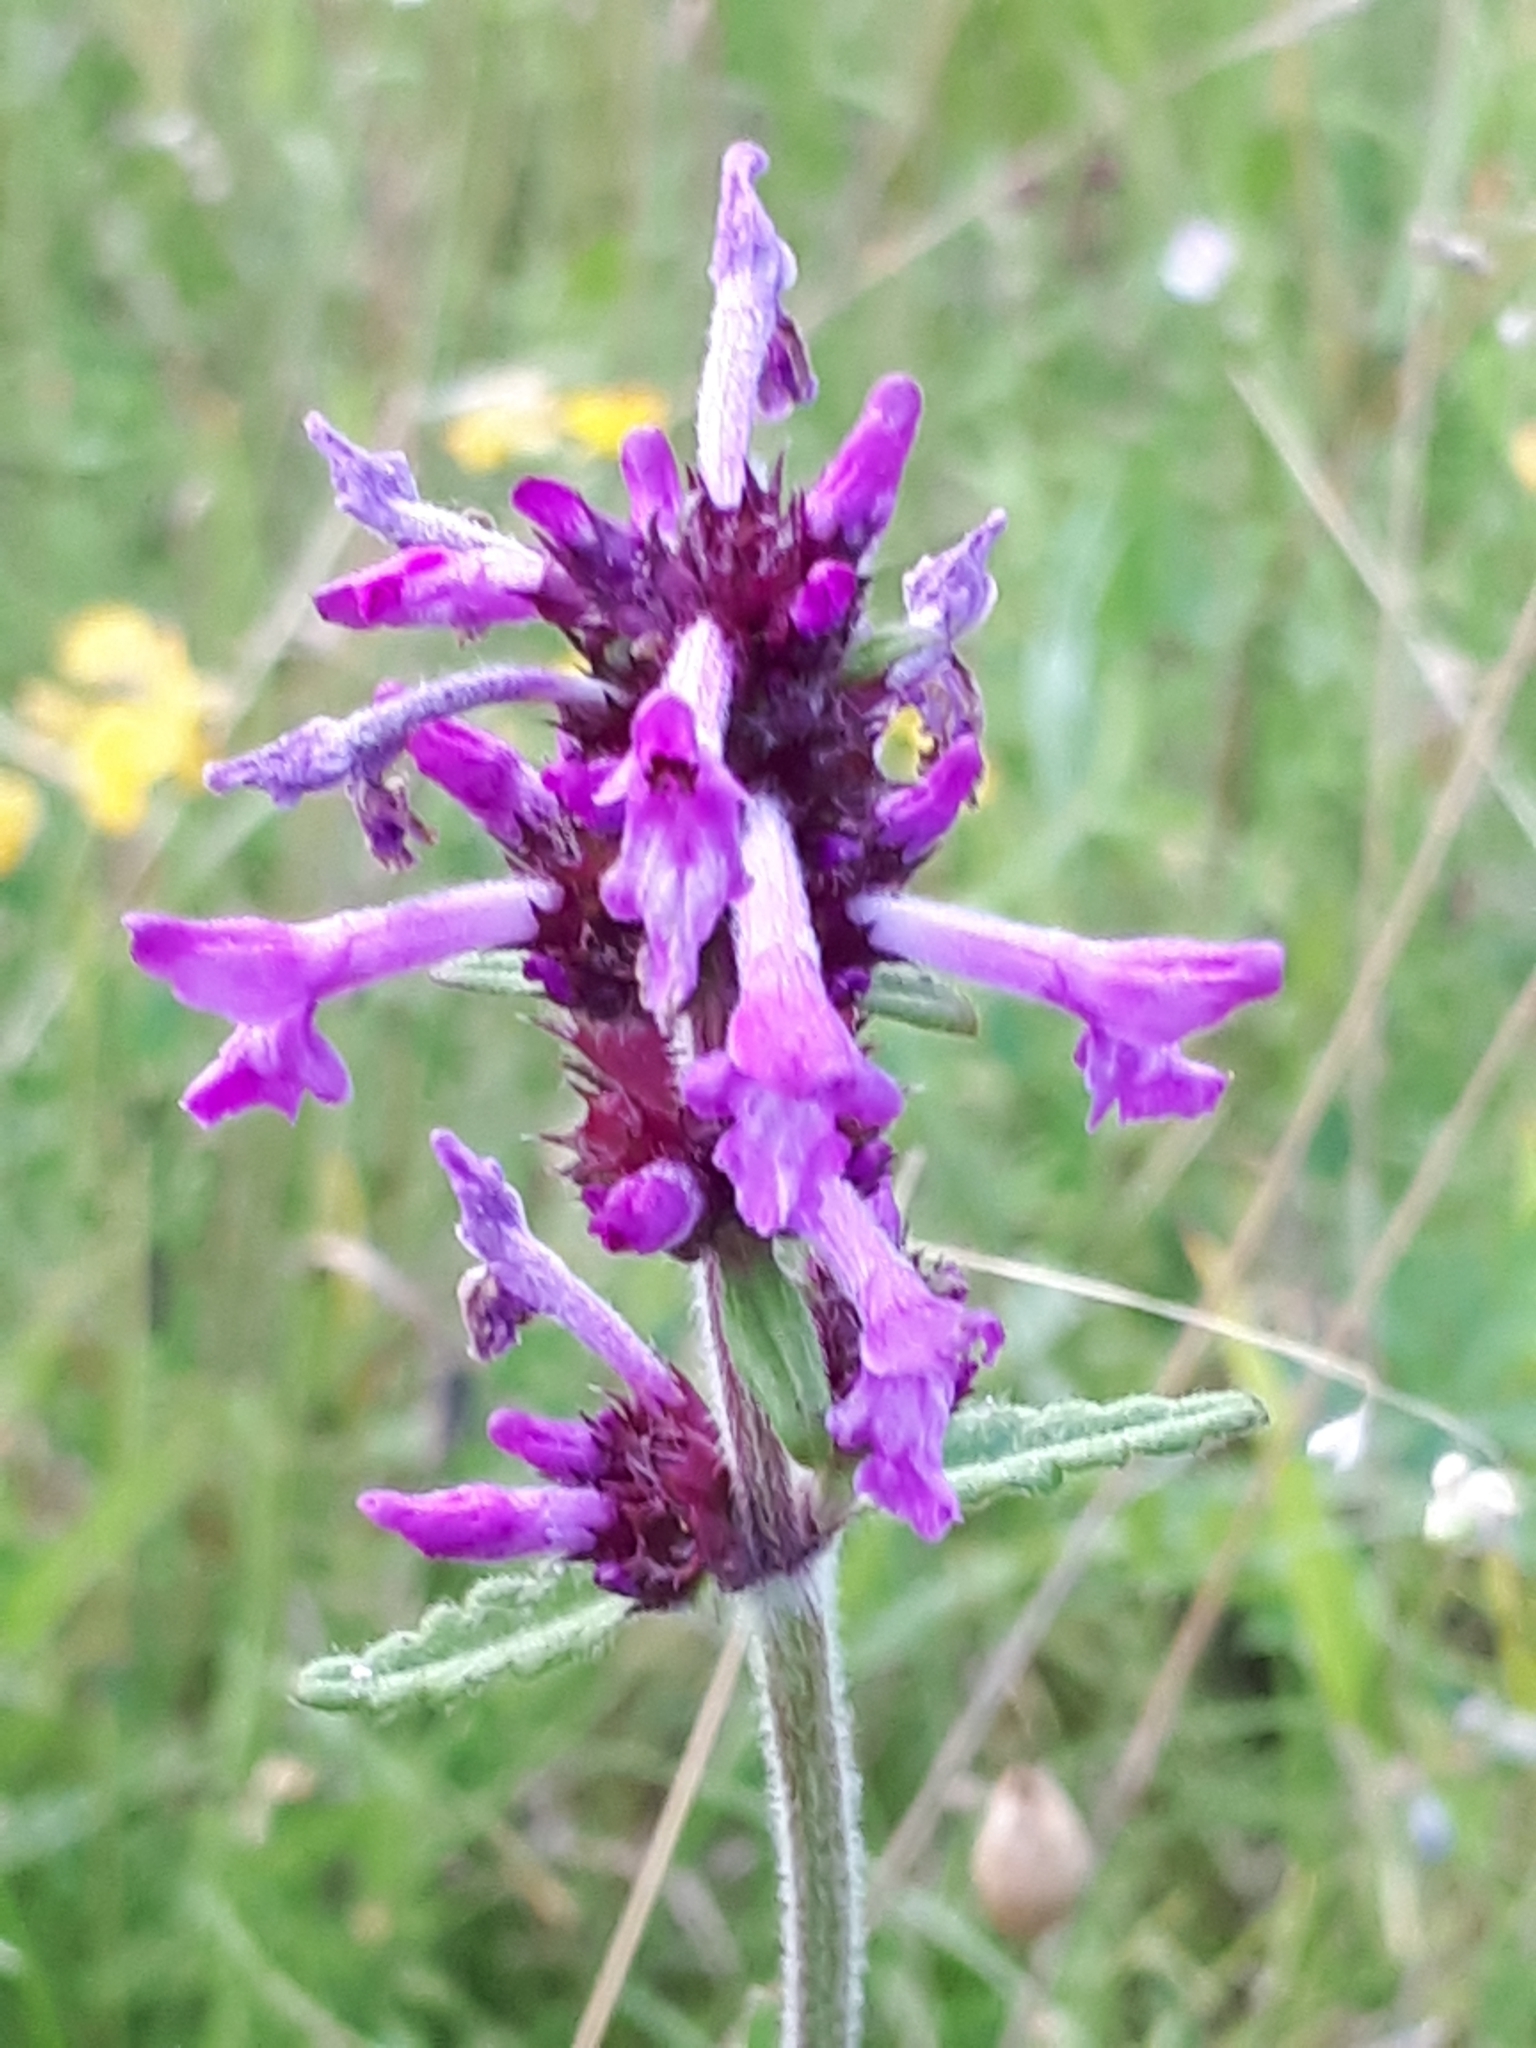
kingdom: Plantae
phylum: Tracheophyta
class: Magnoliopsida
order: Lamiales
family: Lamiaceae
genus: Betonica
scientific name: Betonica officinalis
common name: Bishop's-wort
